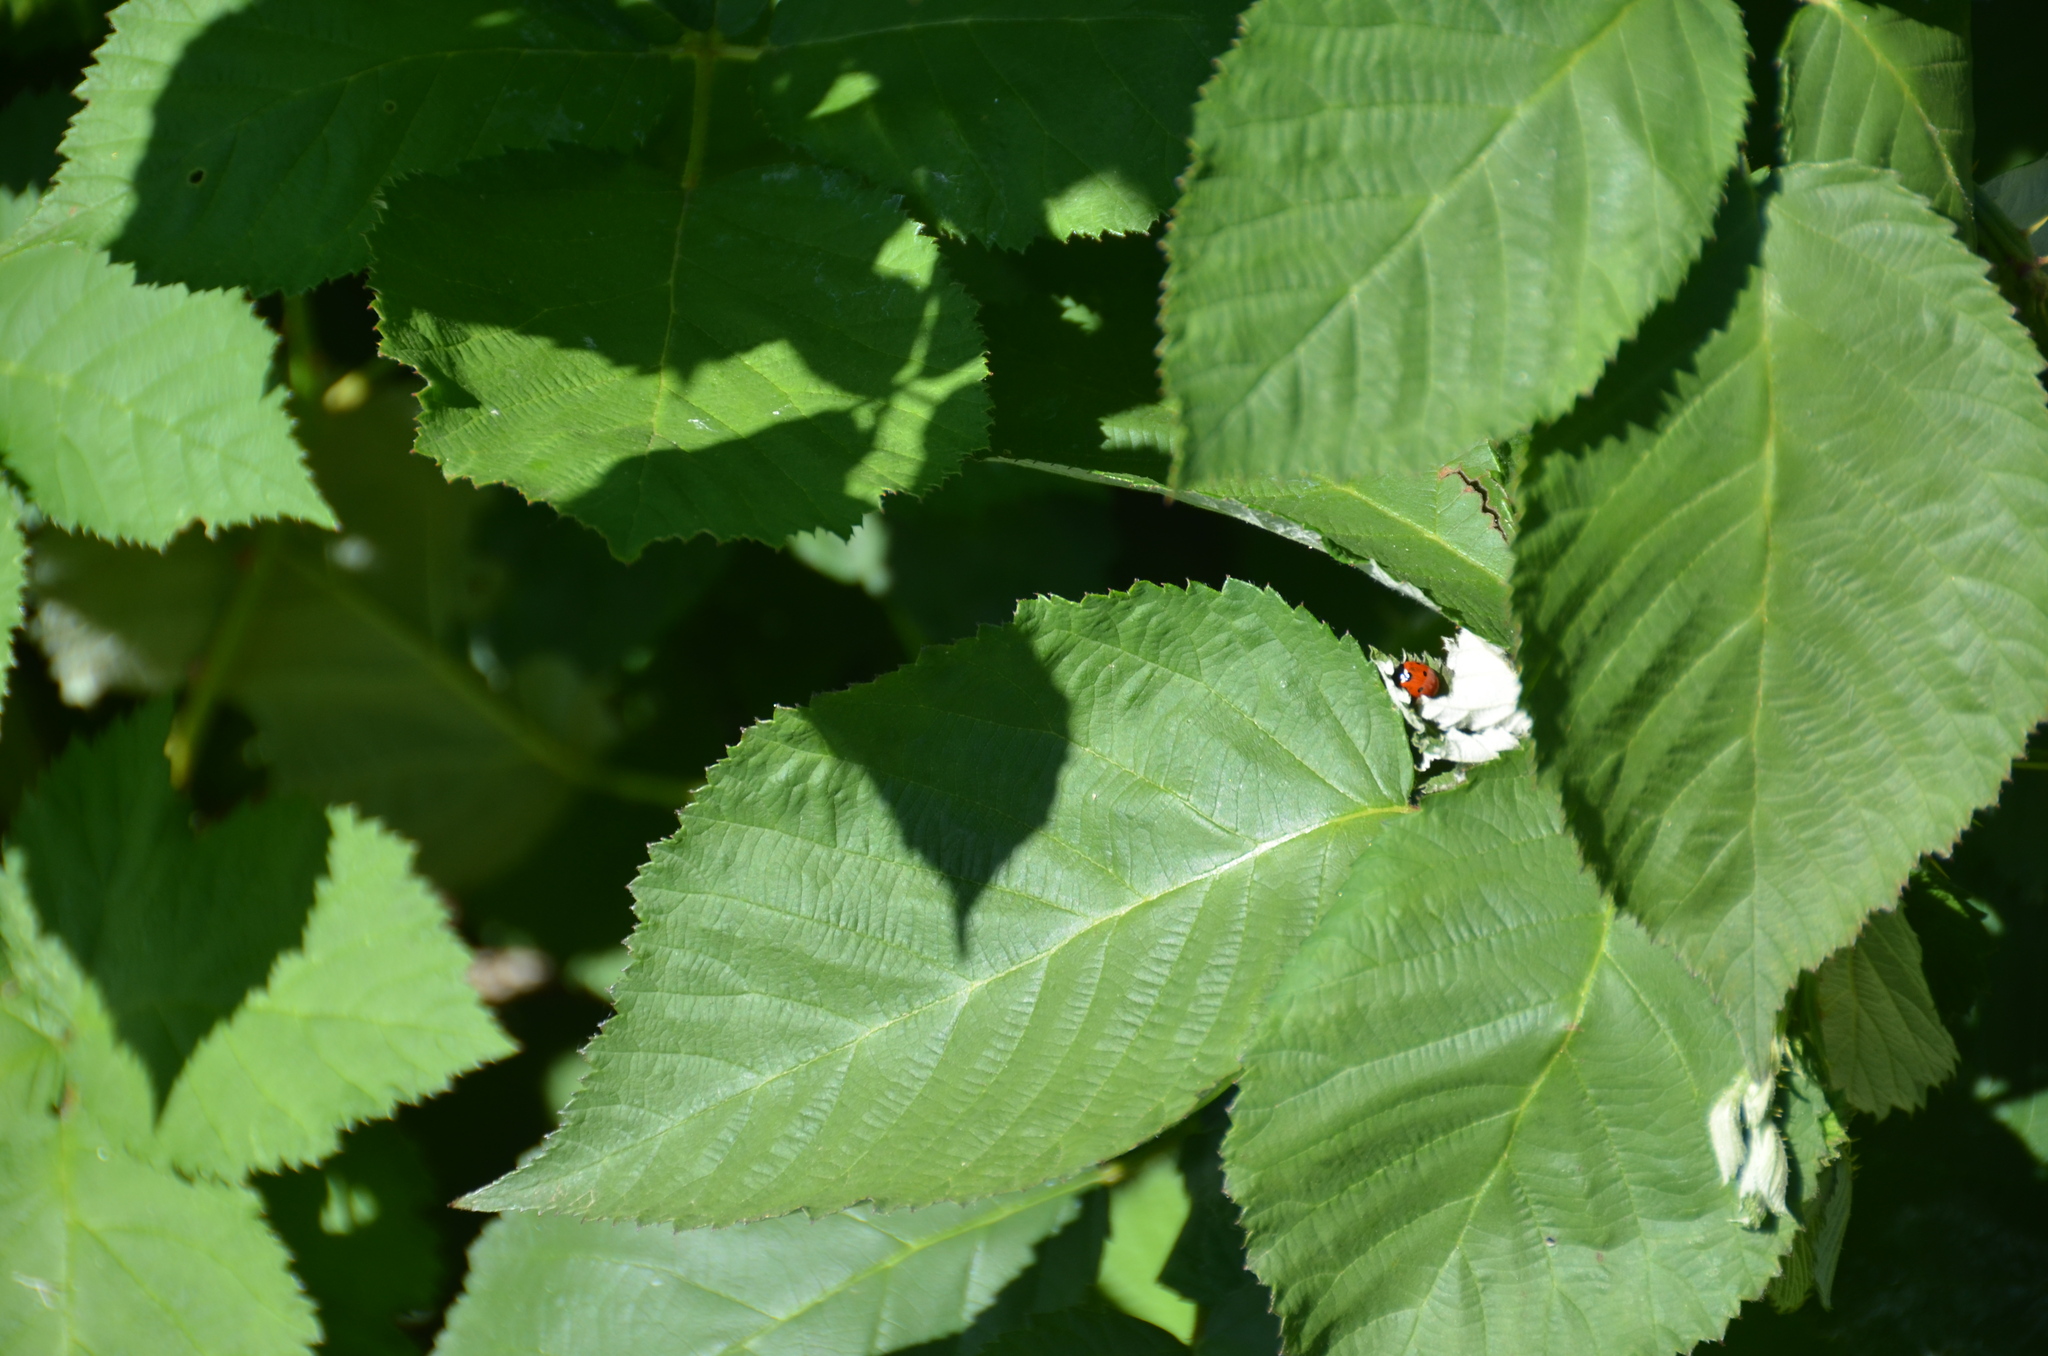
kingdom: Animalia
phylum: Arthropoda
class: Insecta
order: Coleoptera
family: Coccinellidae
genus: Coccinella
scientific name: Coccinella septempunctata
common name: Sevenspotted lady beetle
